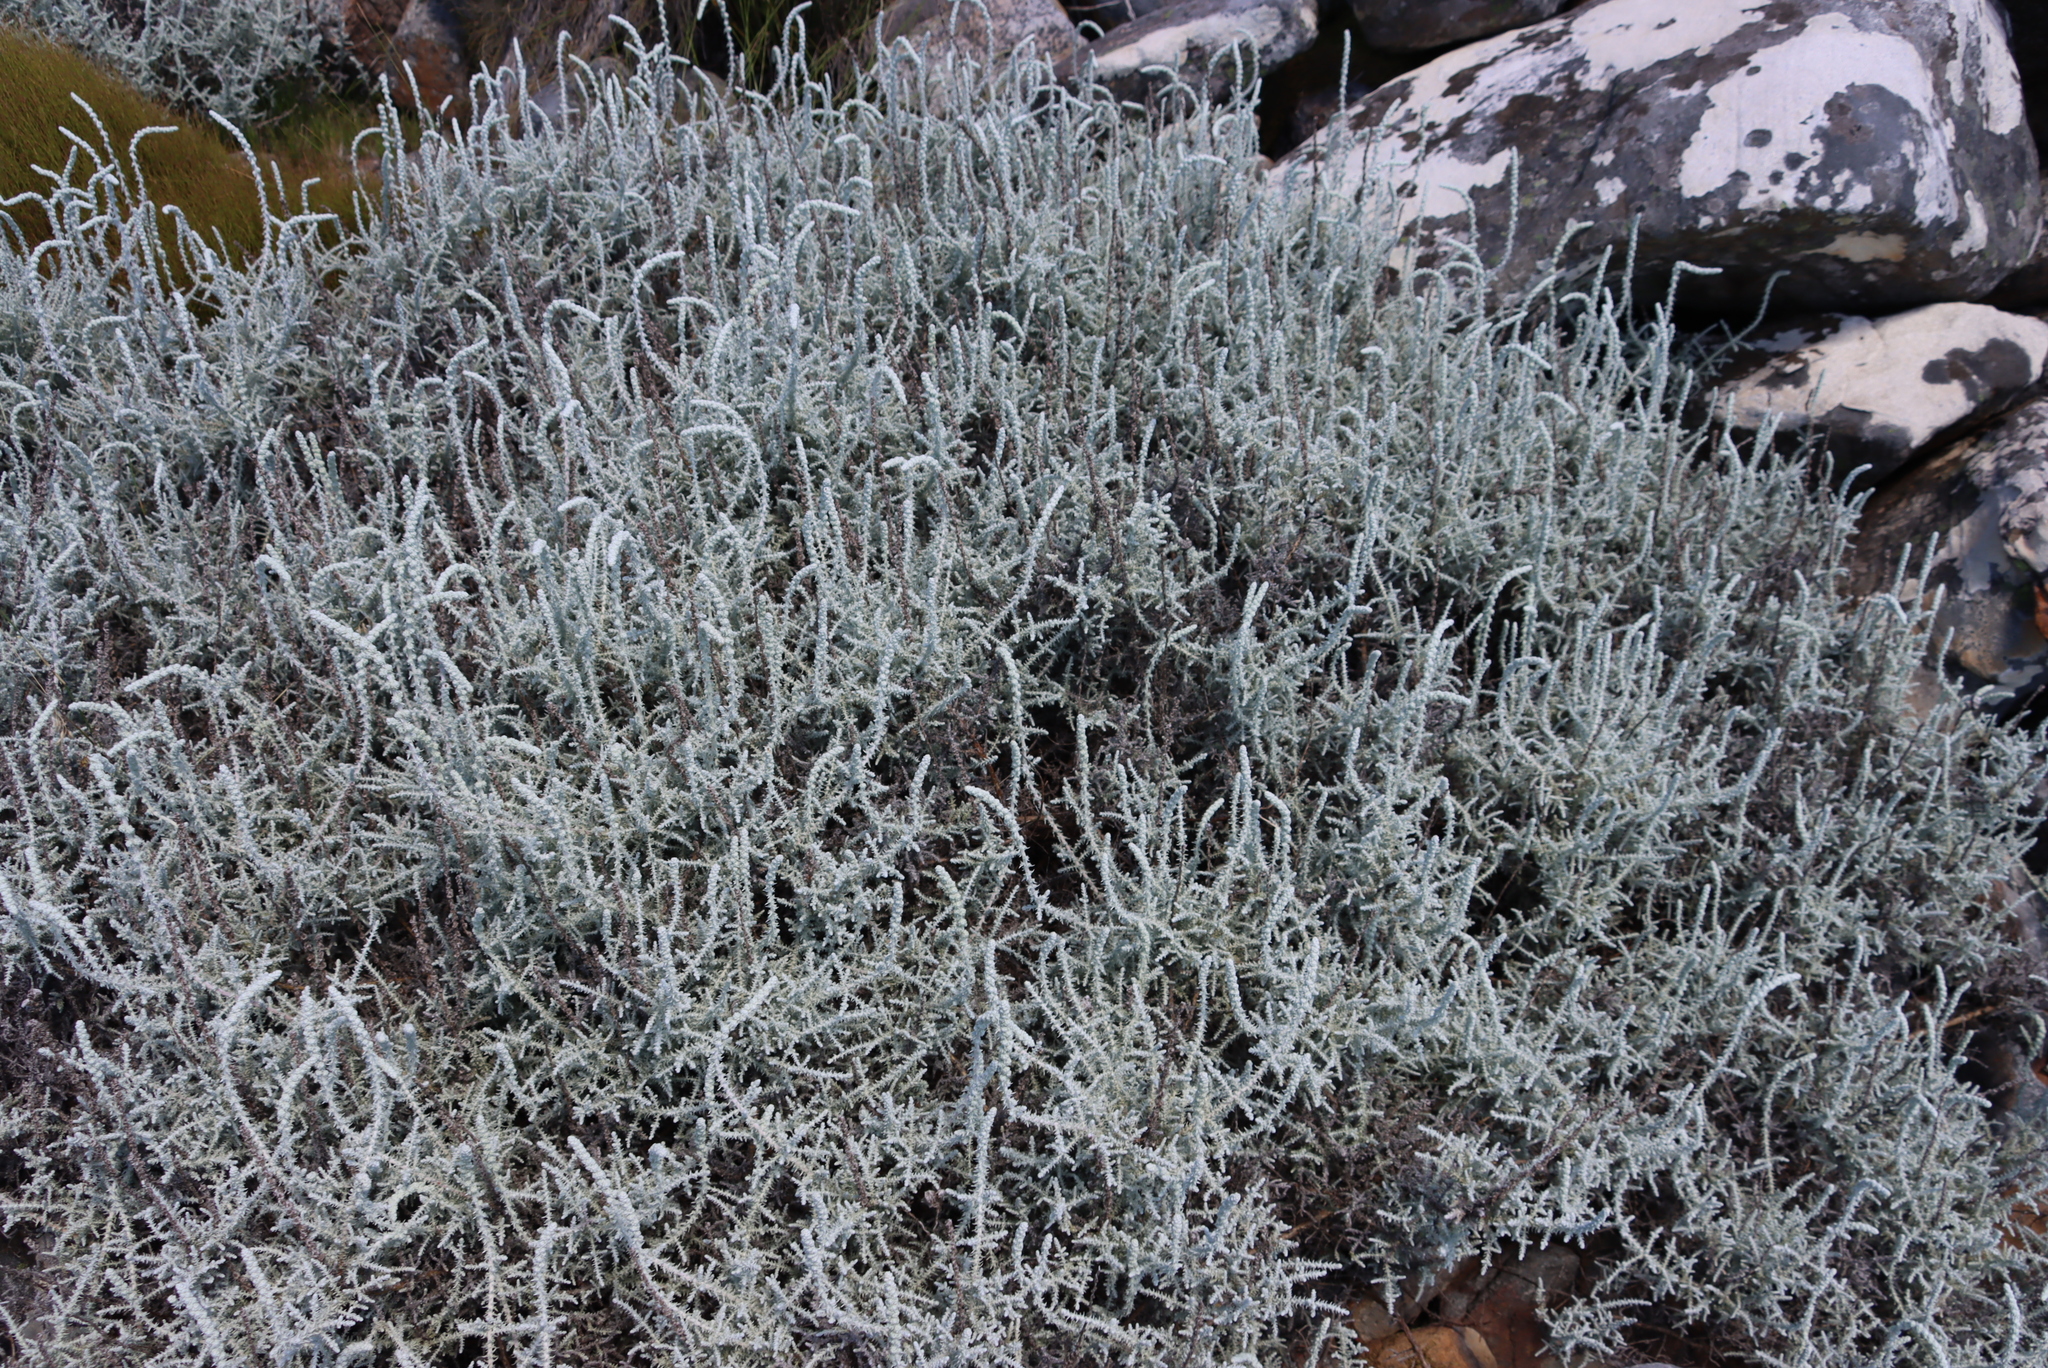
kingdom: Plantae
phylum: Tracheophyta
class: Magnoliopsida
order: Asterales
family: Asteraceae
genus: Seriphium
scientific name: Seriphium plumosum
